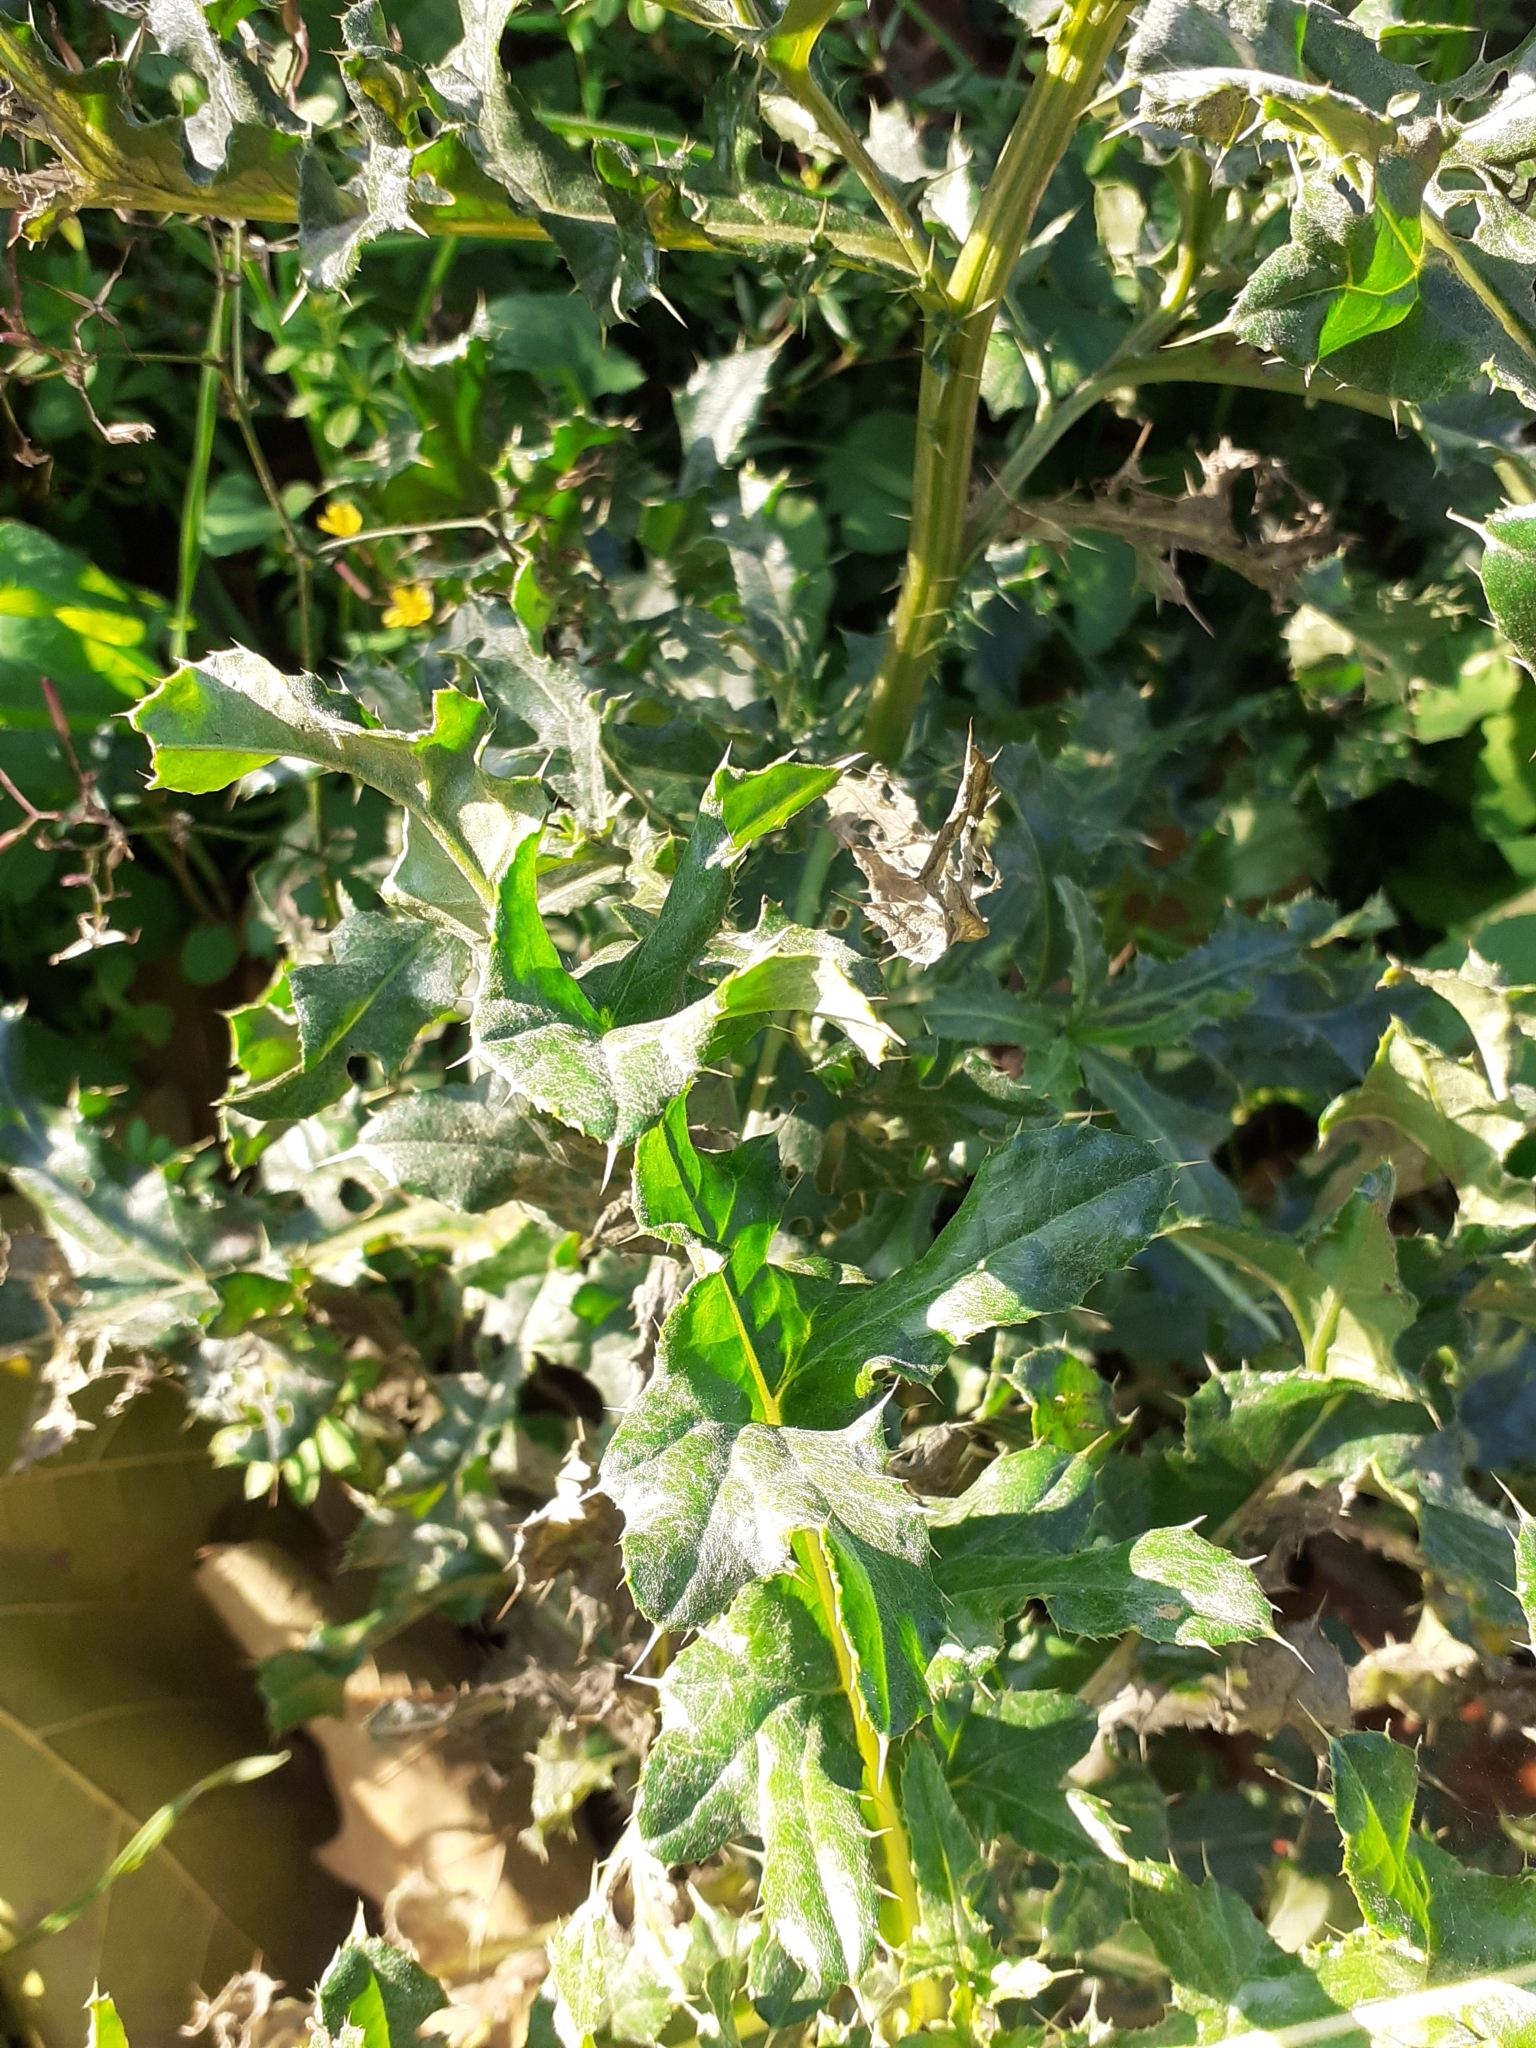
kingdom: Plantae
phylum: Tracheophyta
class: Magnoliopsida
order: Asterales
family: Asteraceae
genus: Cirsium
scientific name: Cirsium arvense
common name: Creeping thistle
